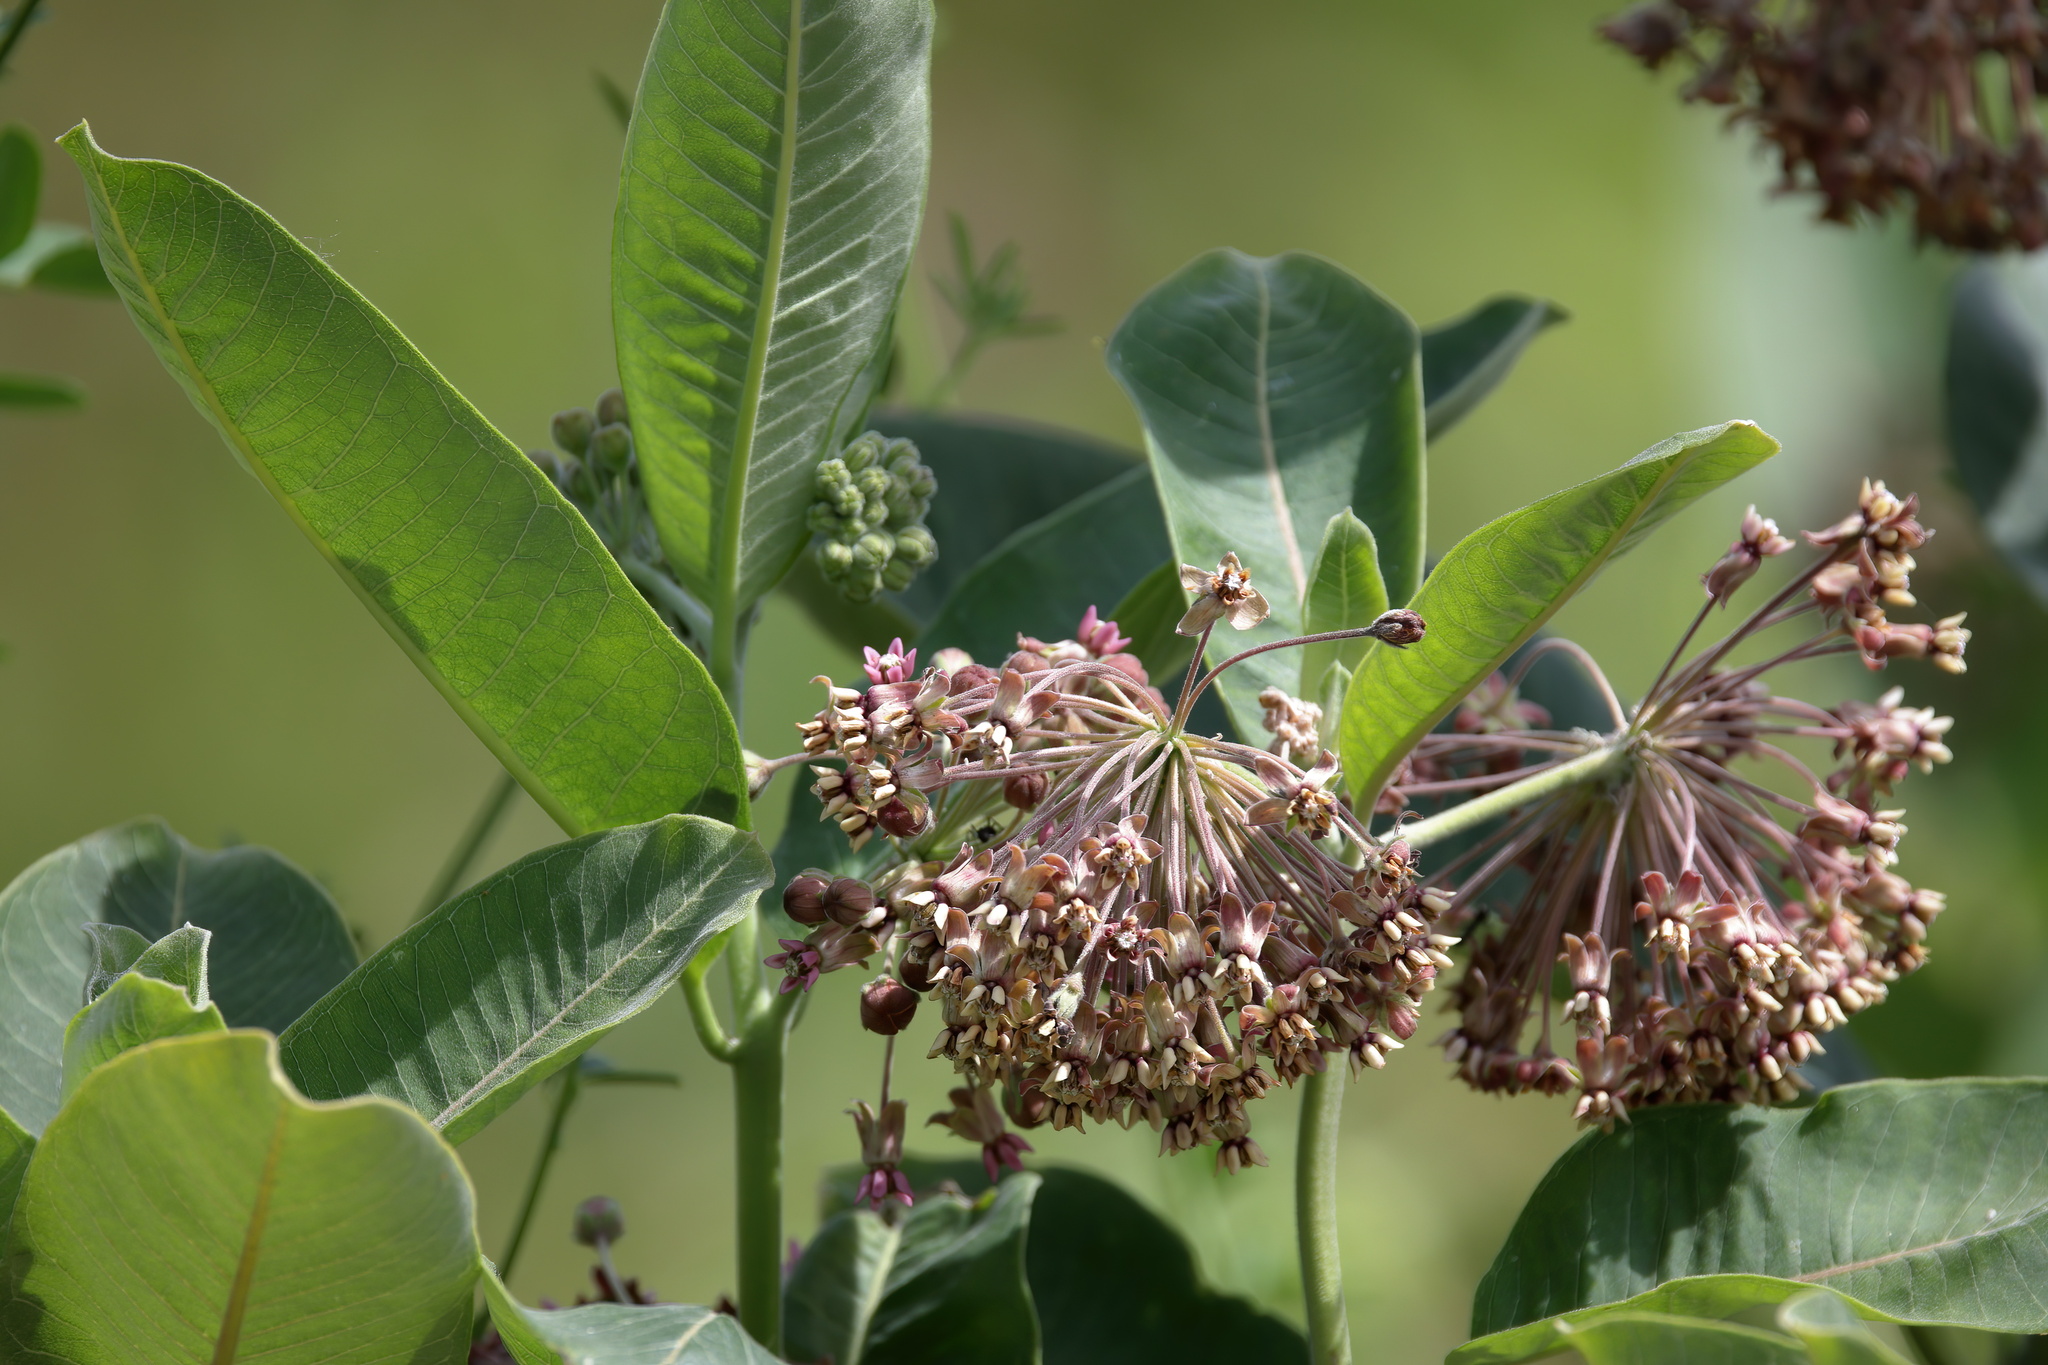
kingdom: Plantae
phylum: Tracheophyta
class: Magnoliopsida
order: Gentianales
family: Apocynaceae
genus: Asclepias
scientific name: Asclepias syriaca
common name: Common milkweed
